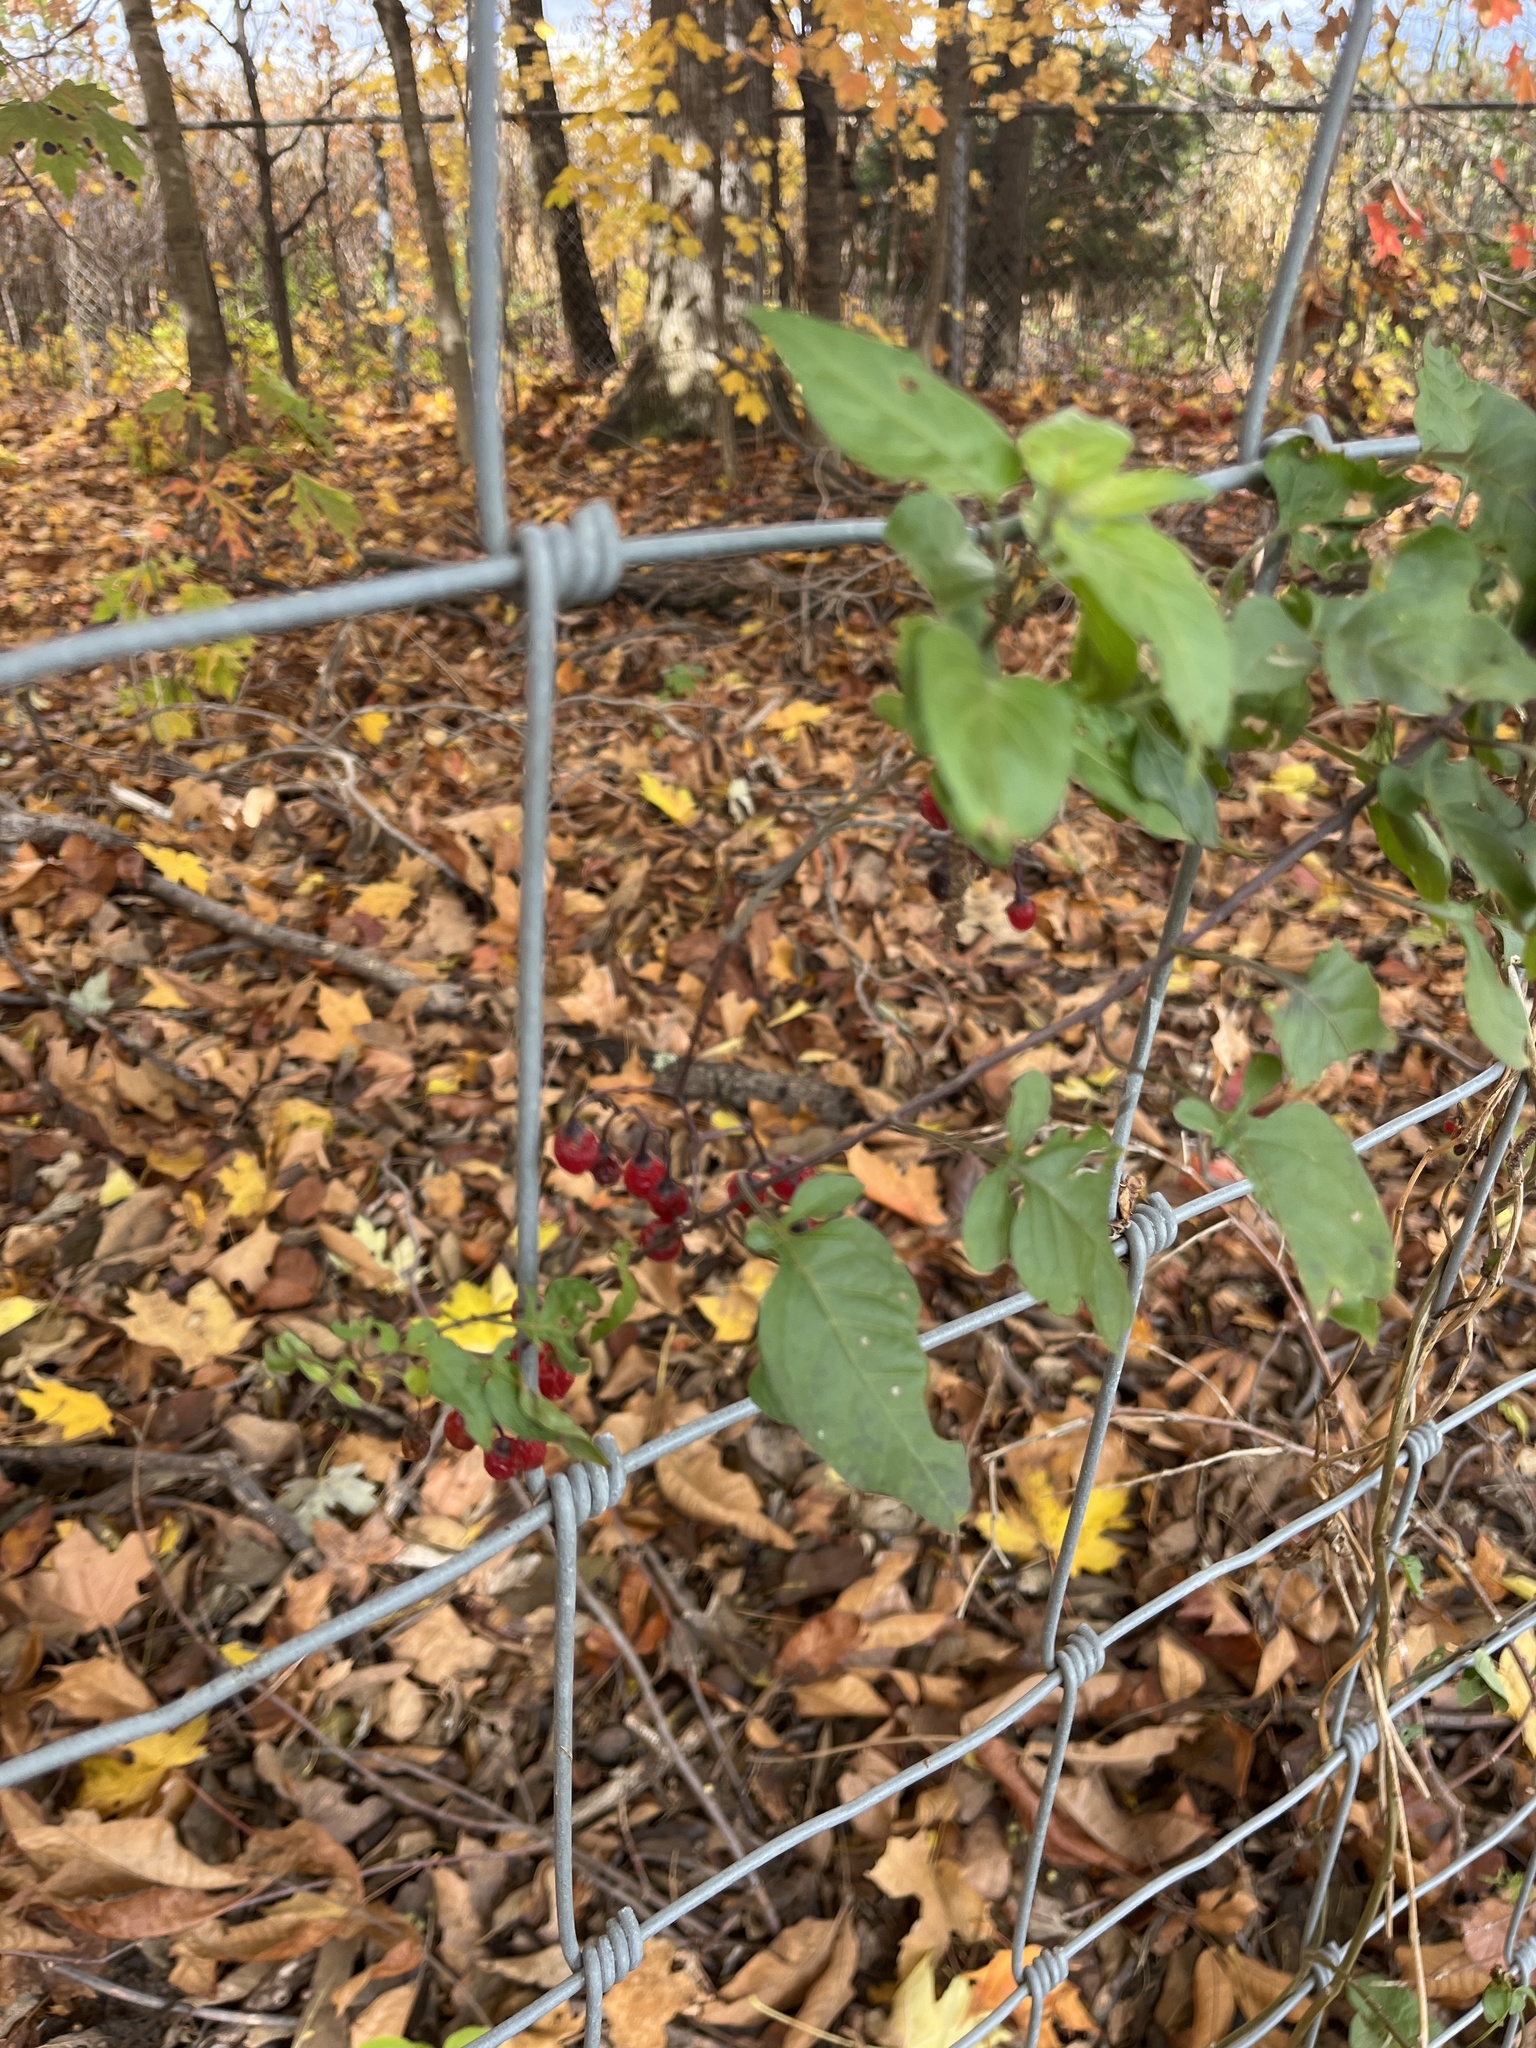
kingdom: Plantae
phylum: Tracheophyta
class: Magnoliopsida
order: Solanales
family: Solanaceae
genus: Solanum
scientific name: Solanum dulcamara
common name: Climbing nightshade
